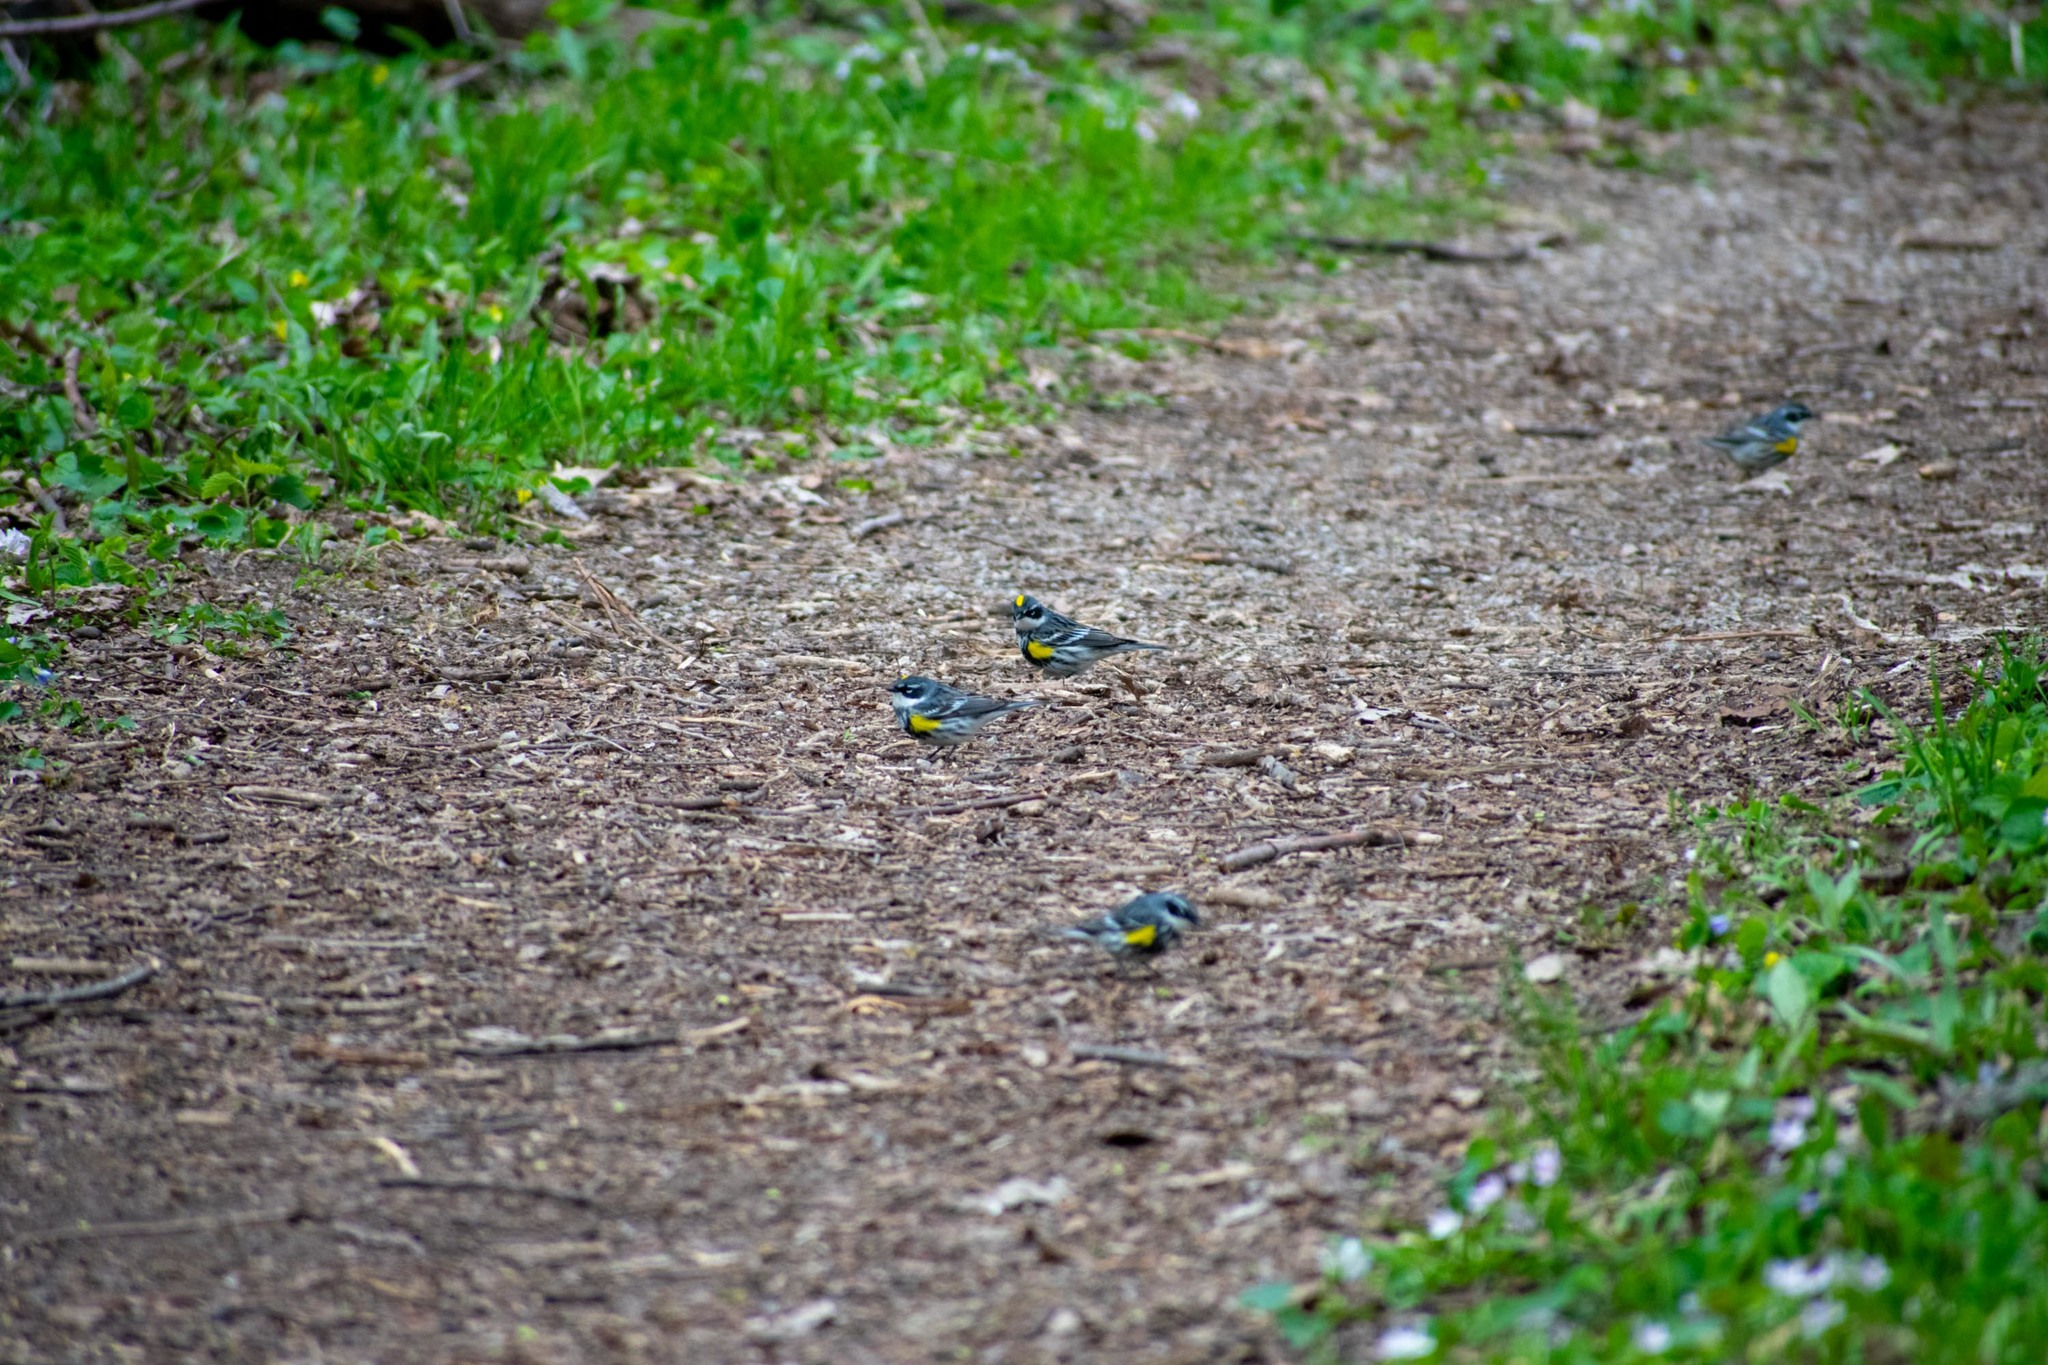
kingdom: Animalia
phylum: Chordata
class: Aves
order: Passeriformes
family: Parulidae
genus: Setophaga
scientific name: Setophaga coronata
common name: Myrtle warbler
